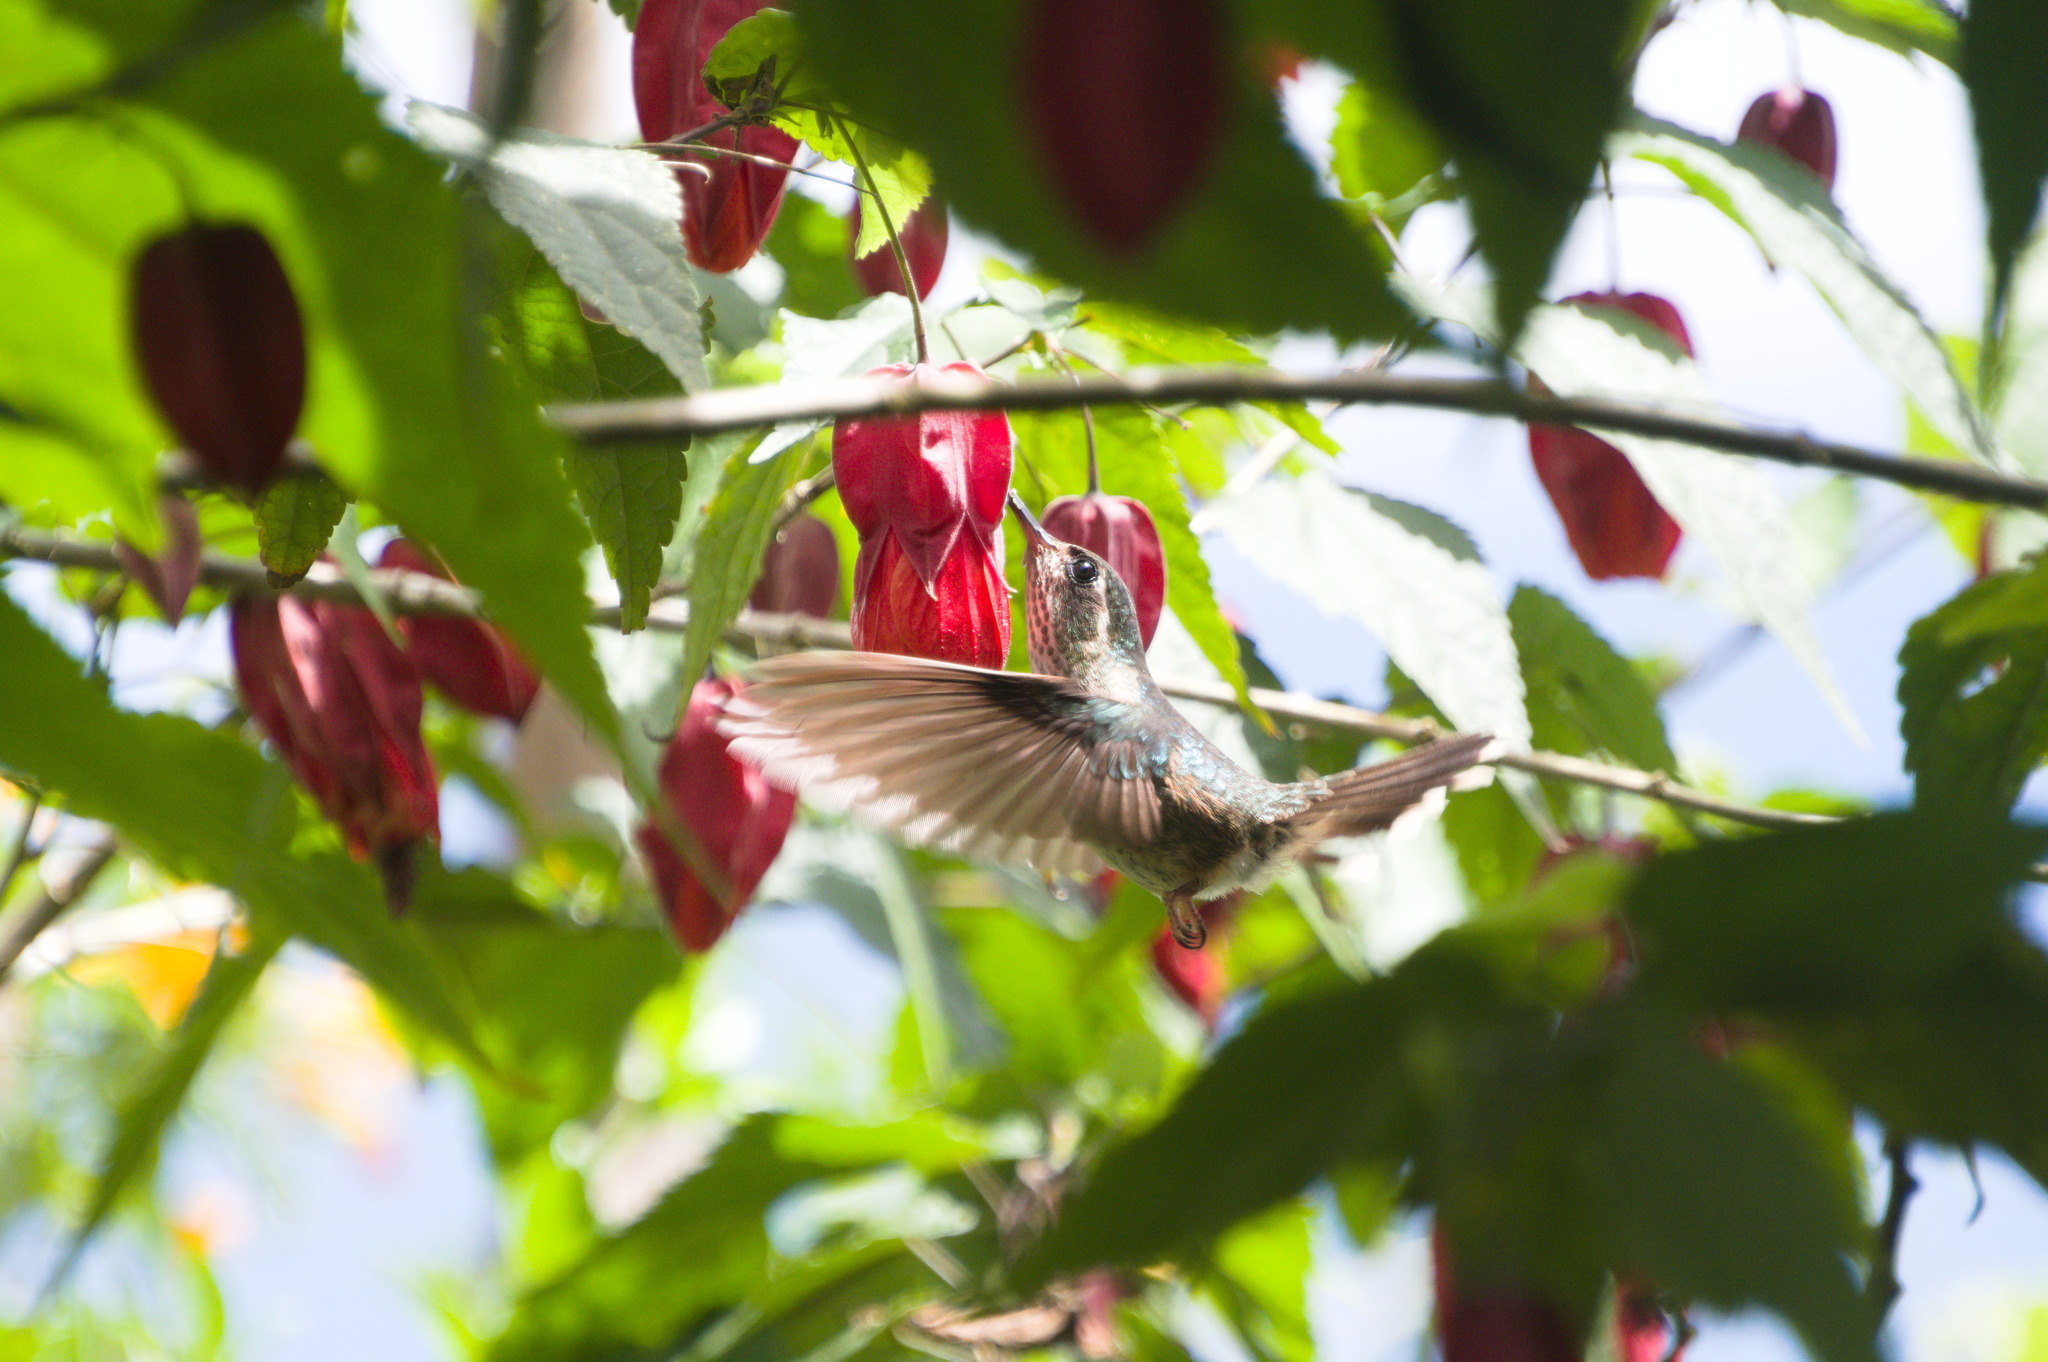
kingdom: Animalia
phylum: Chordata
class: Aves
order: Apodiformes
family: Trochilidae
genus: Adelomyia
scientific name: Adelomyia melanogenys
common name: Speckled hummingbird
